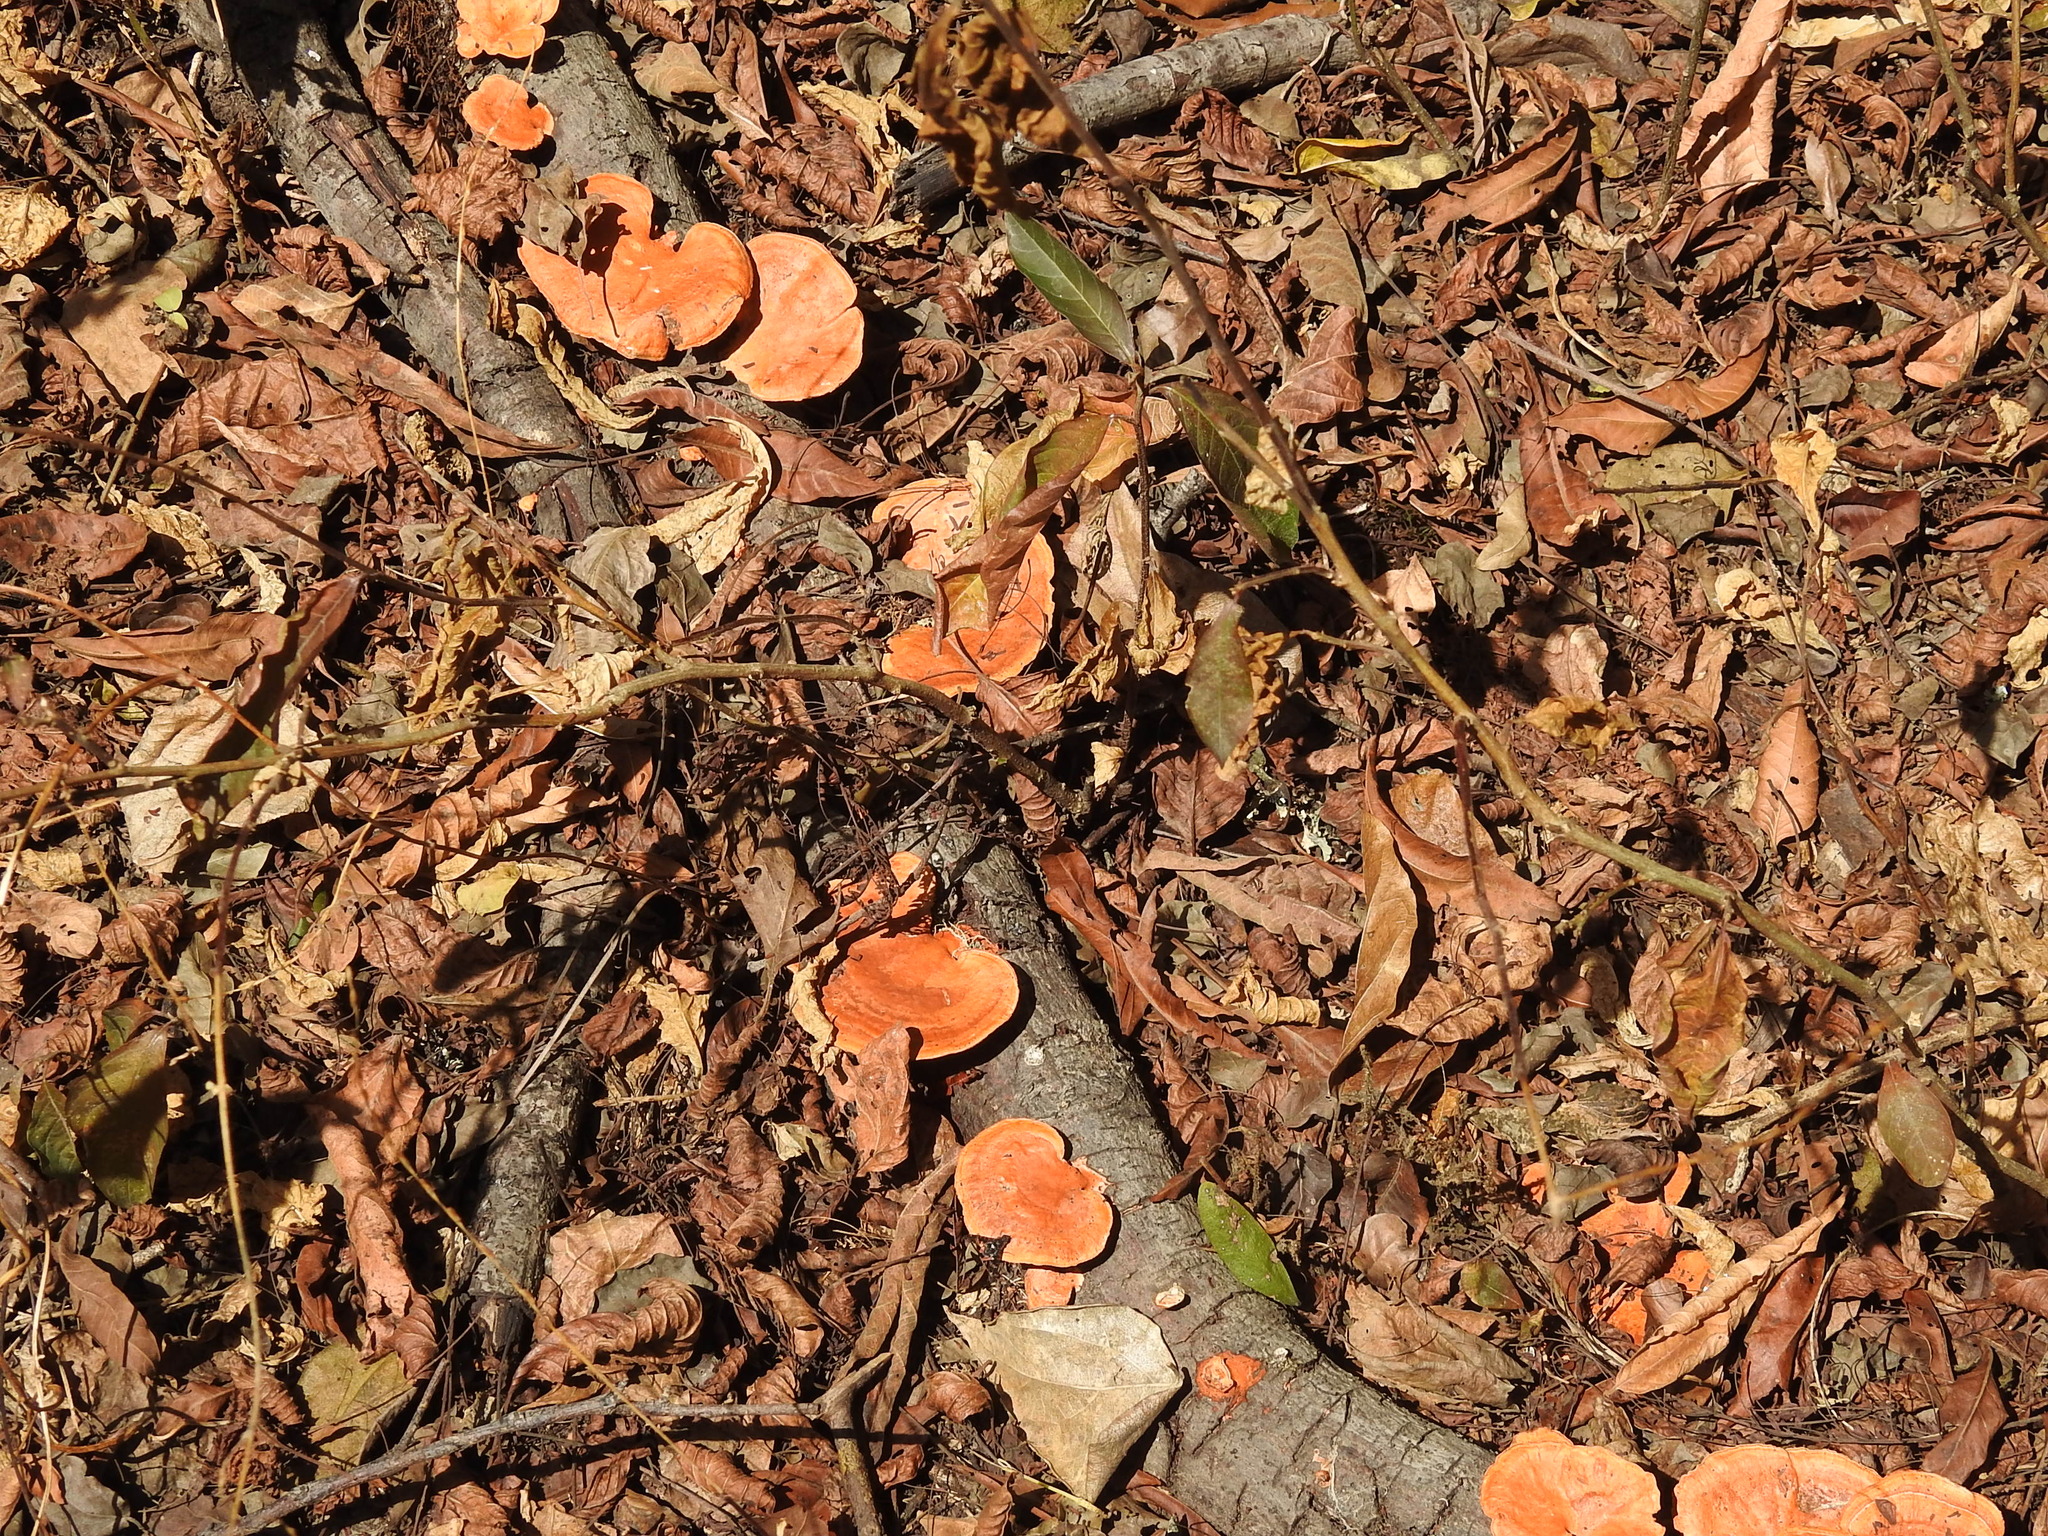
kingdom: Fungi
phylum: Basidiomycota
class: Agaricomycetes
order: Polyporales
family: Polyporaceae
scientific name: Polyporaceae
